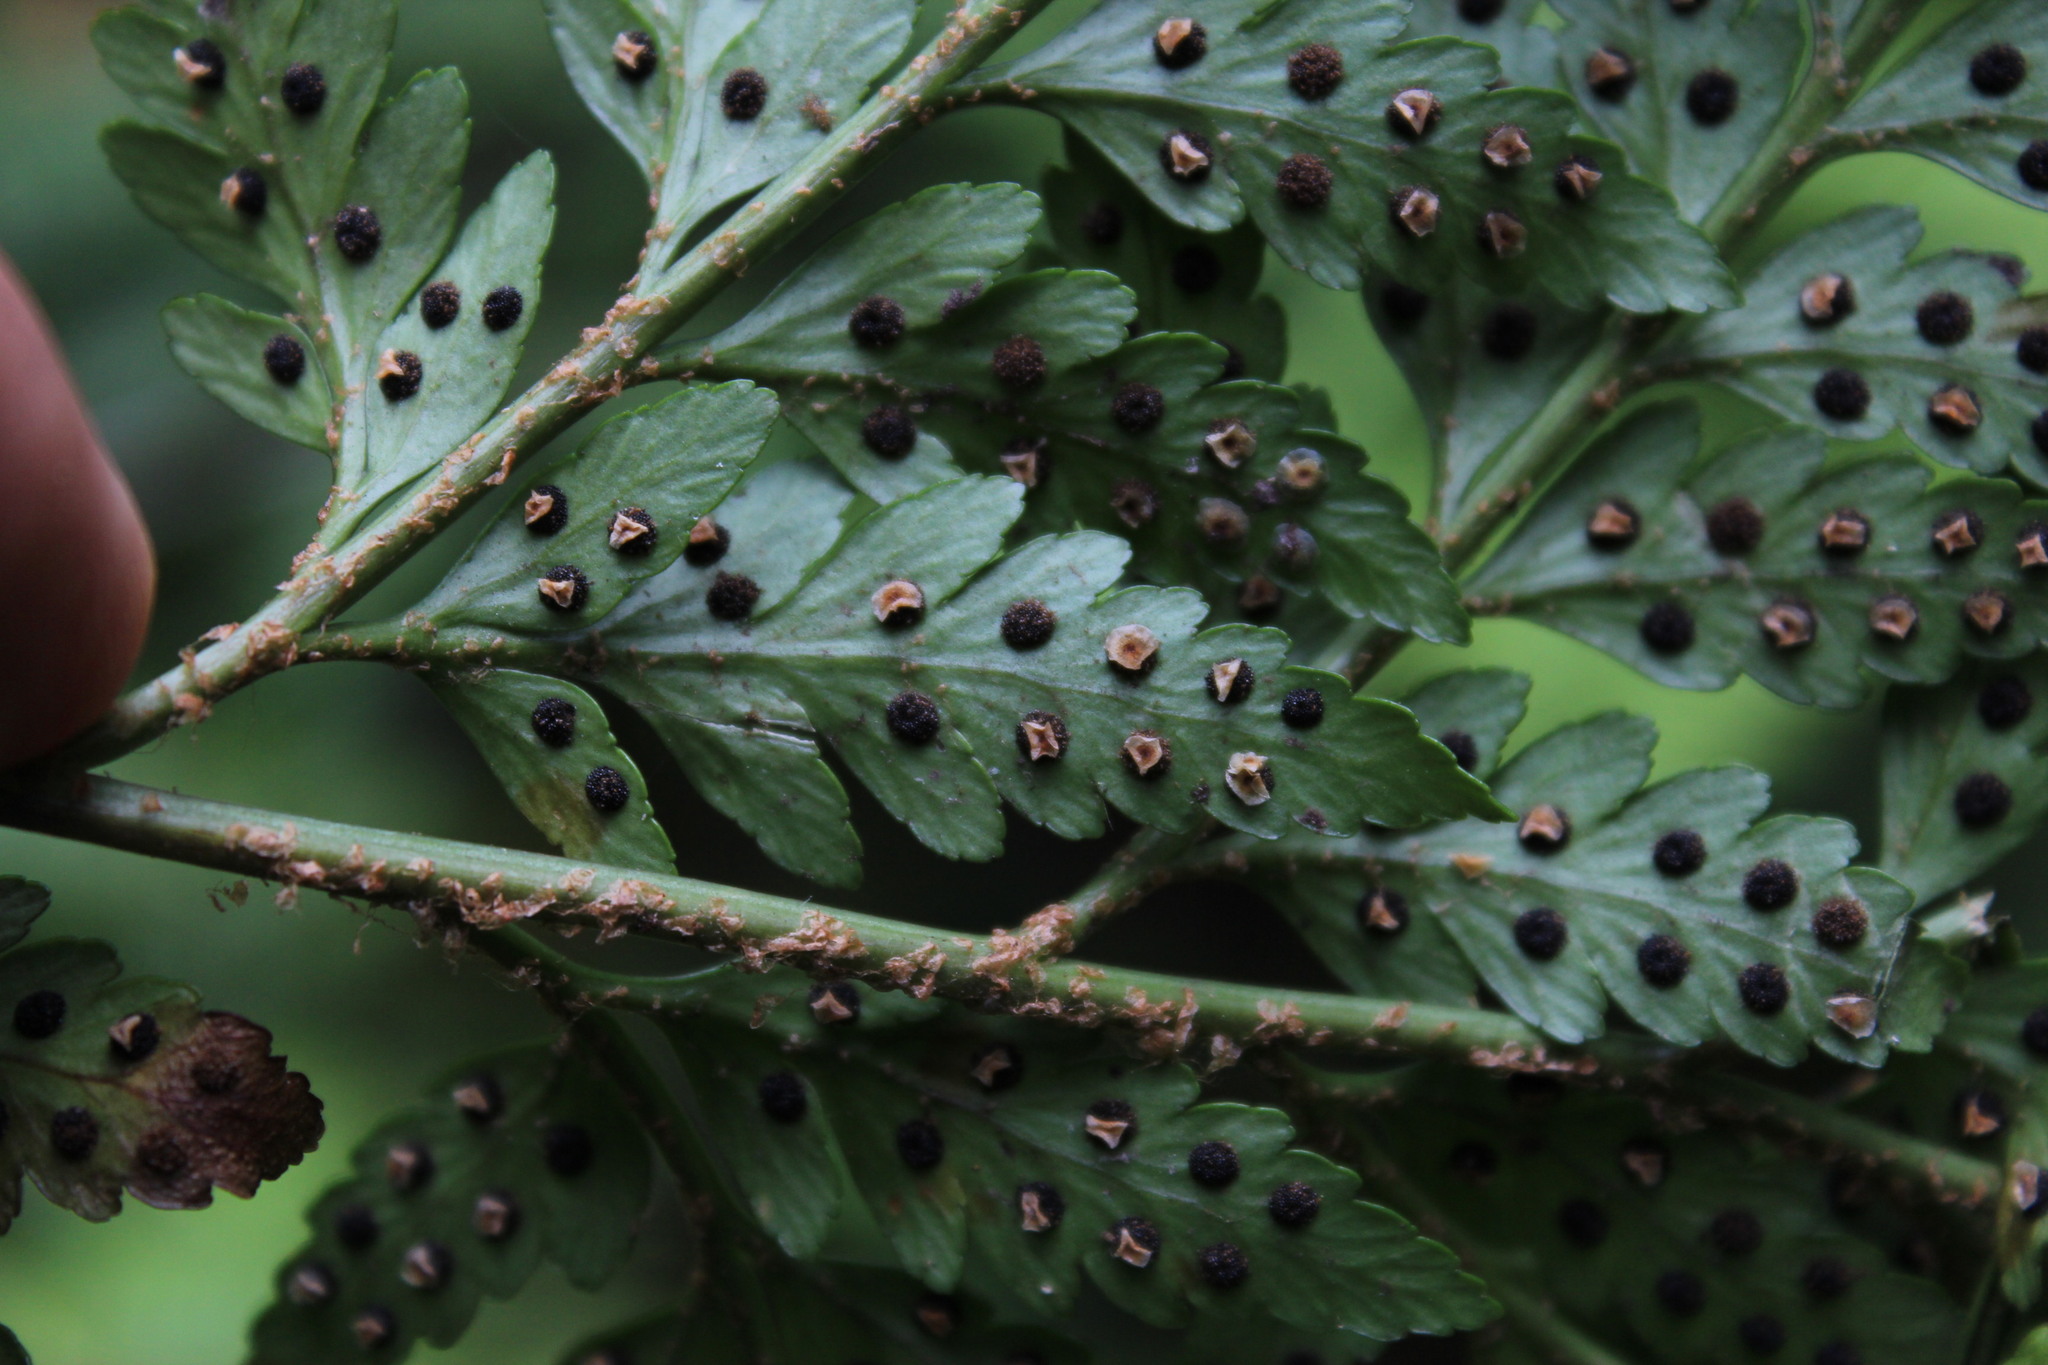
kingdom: Plantae
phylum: Tracheophyta
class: Polypodiopsida
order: Polypodiales
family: Dryopteridaceae
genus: Rumohra
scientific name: Rumohra adiantiformis
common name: Leather fern
